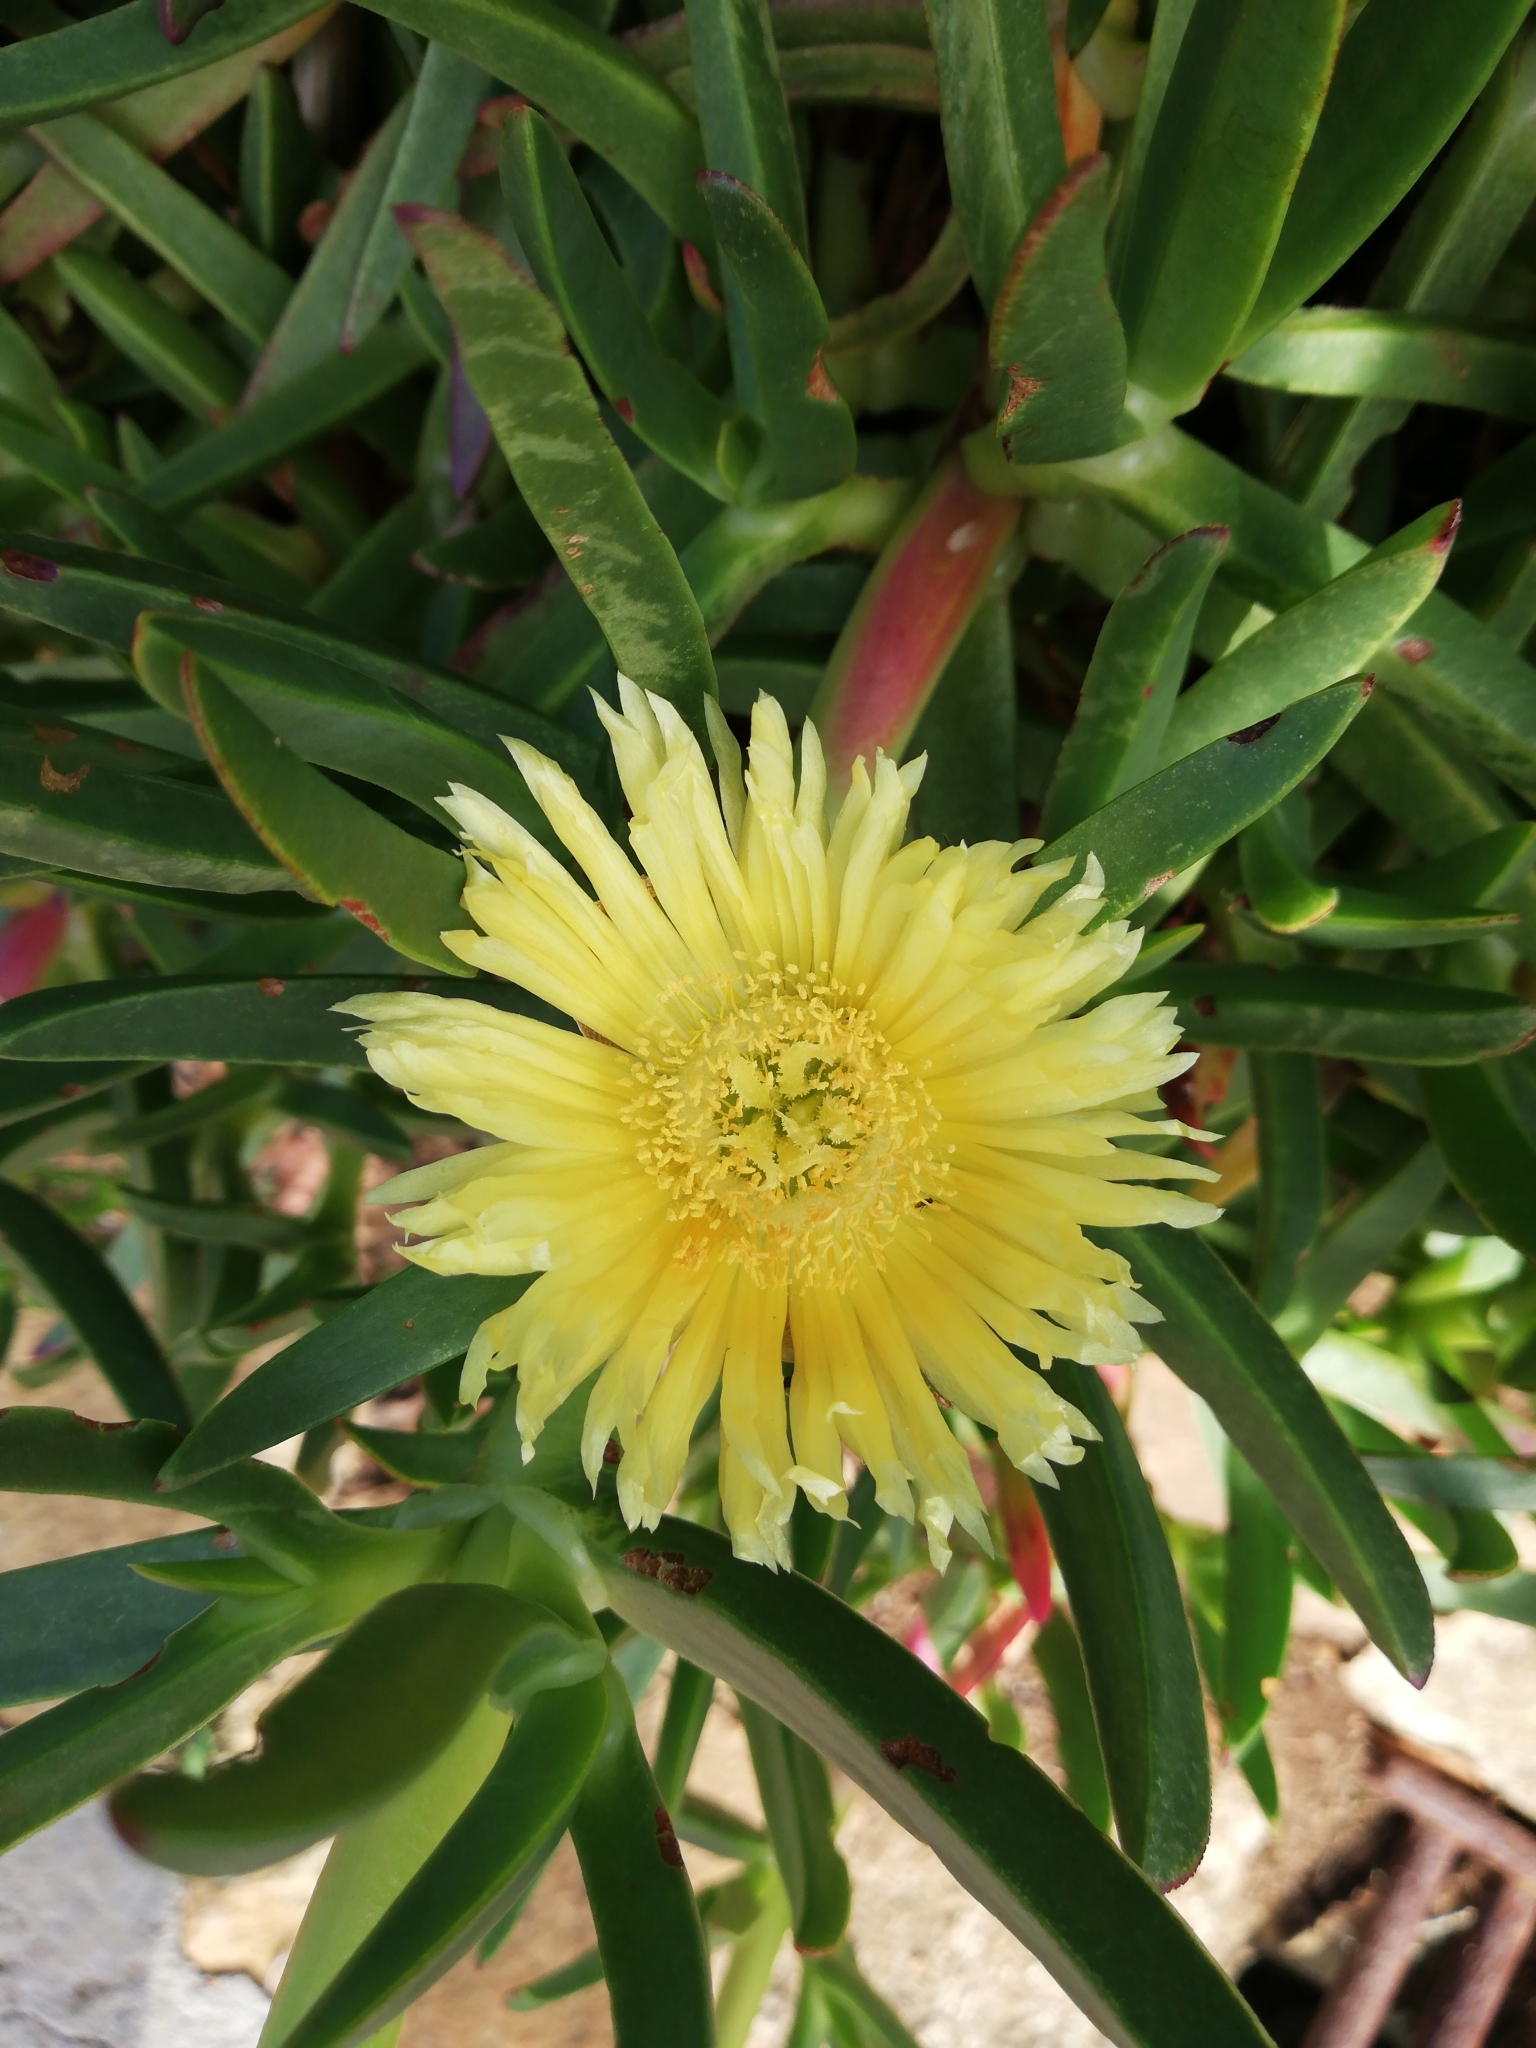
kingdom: Plantae
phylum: Tracheophyta
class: Magnoliopsida
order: Caryophyllales
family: Aizoaceae
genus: Carpobrotus
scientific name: Carpobrotus edulis
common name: Hottentot-fig
